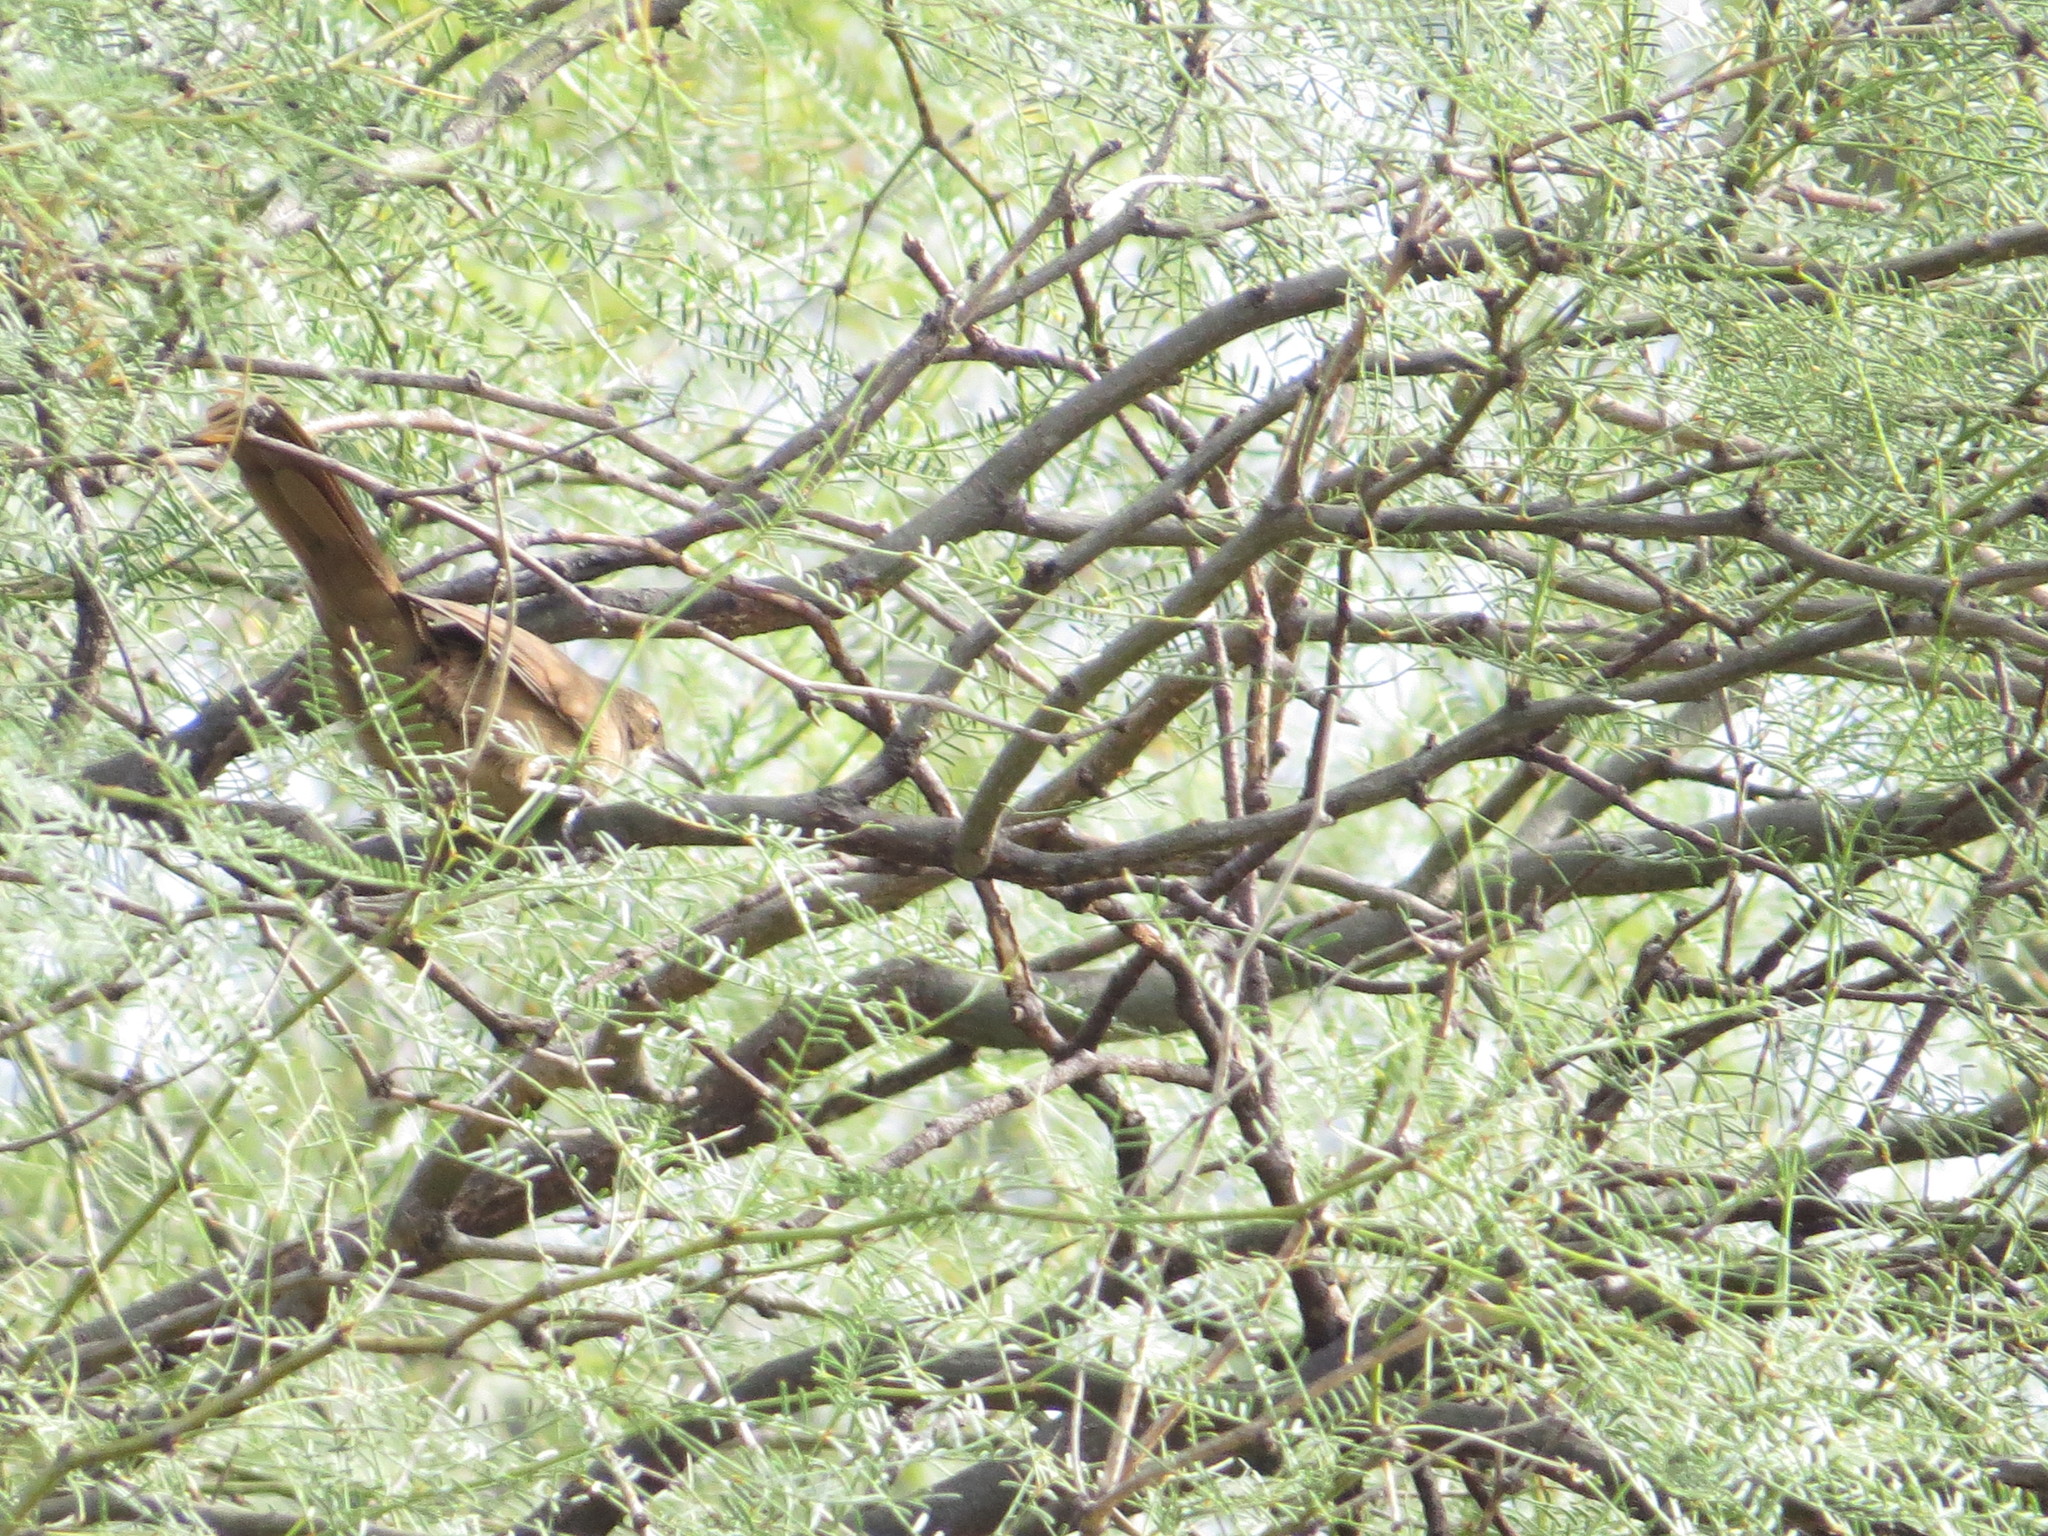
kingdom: Animalia
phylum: Chordata
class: Aves
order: Passeriformes
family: Furnariidae
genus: Upucerthia
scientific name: Upucerthia certhioides
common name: Chaco earthcreeper
